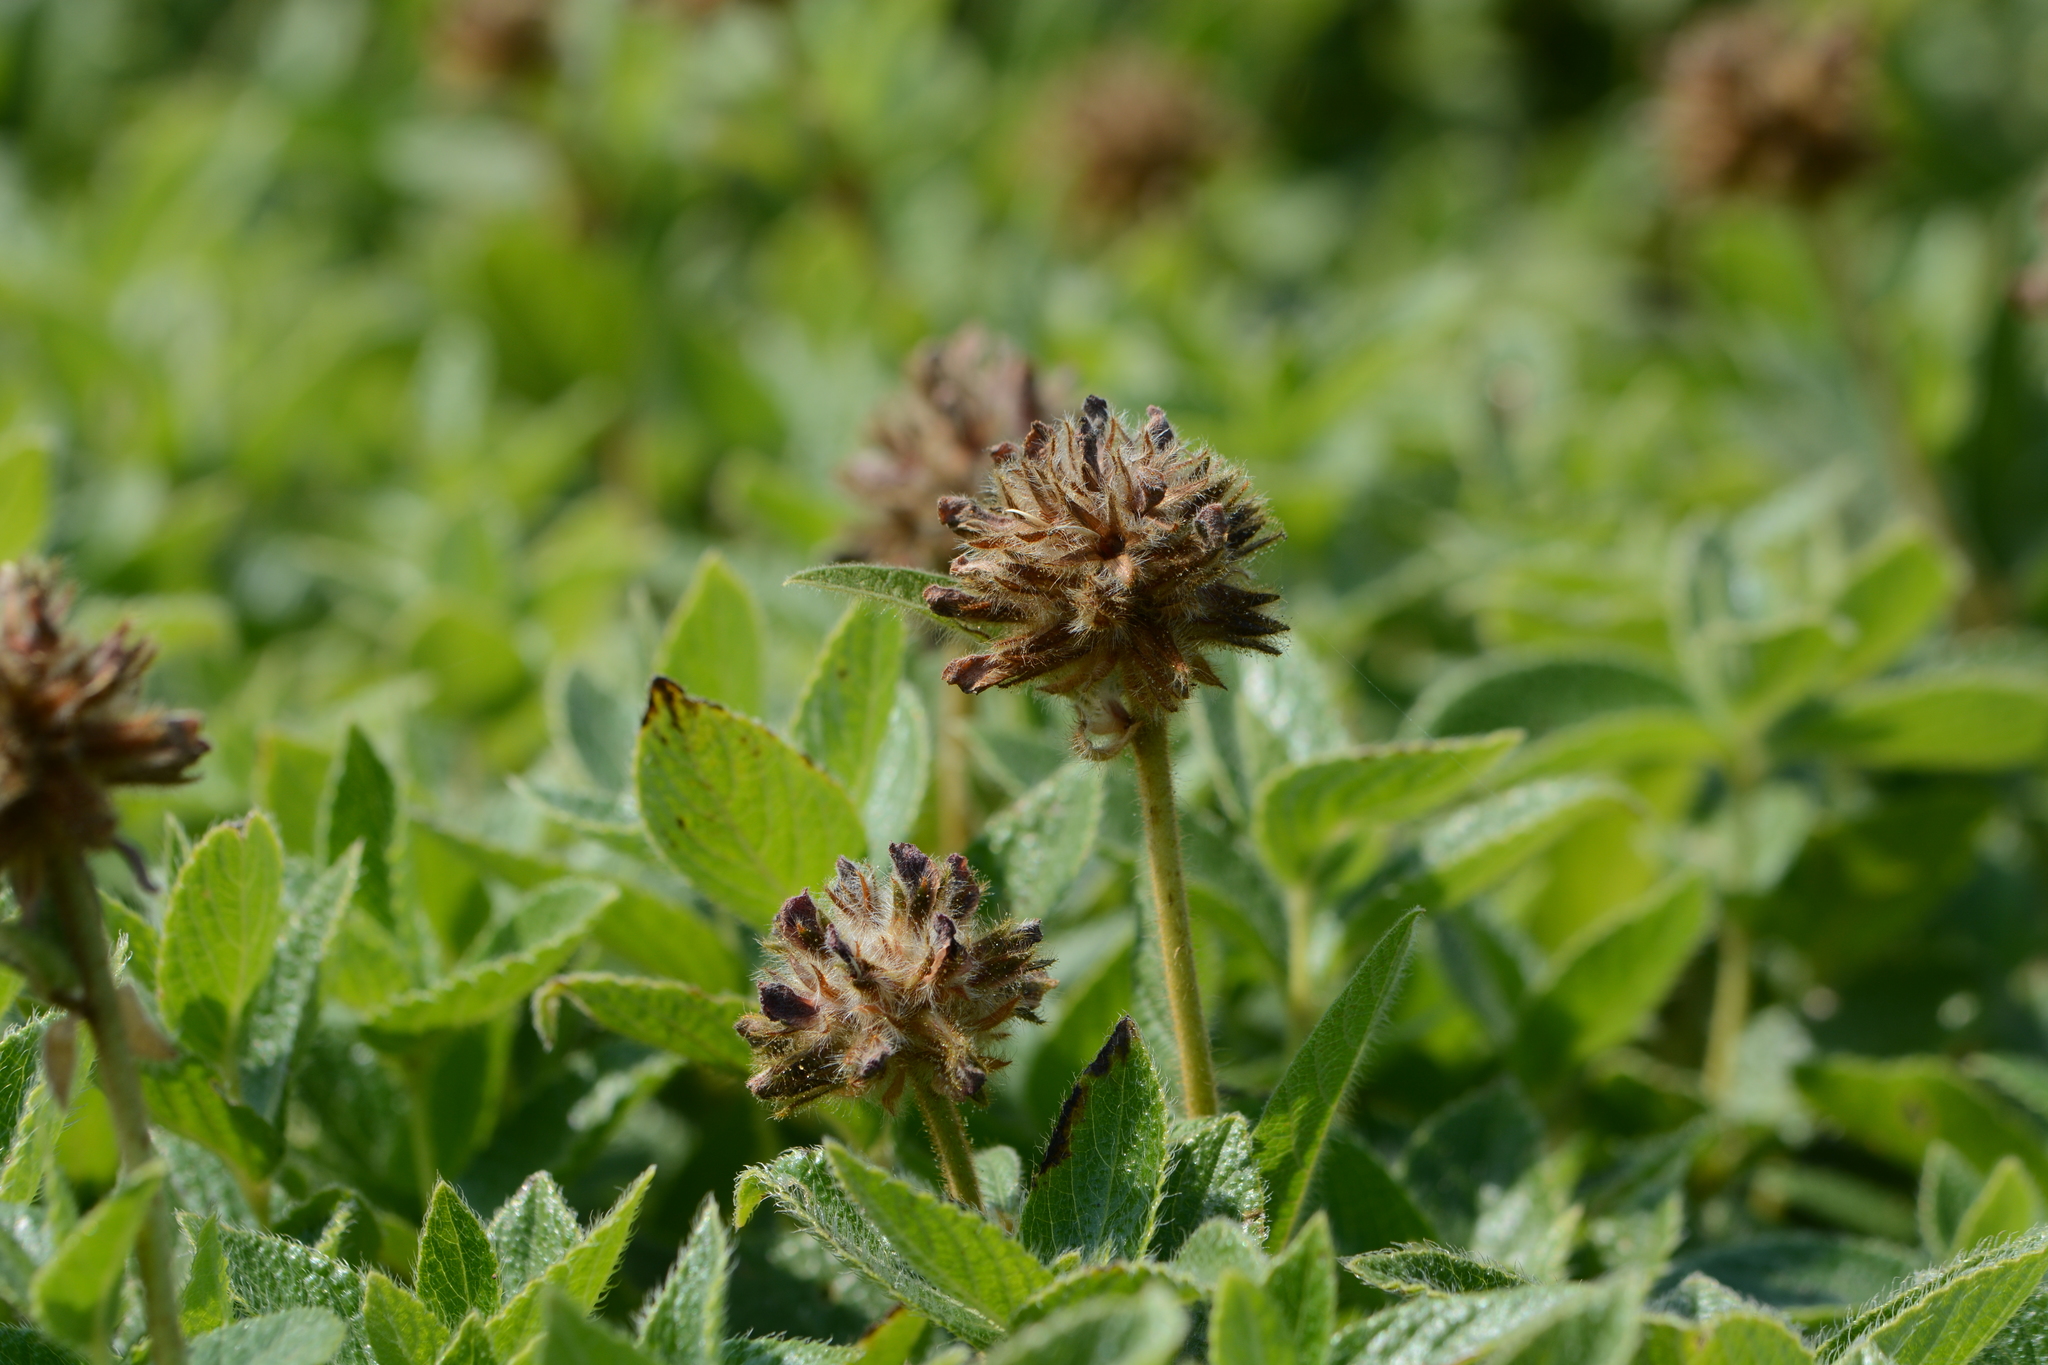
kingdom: Plantae
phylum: Tracheophyta
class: Magnoliopsida
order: Fabales
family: Fabaceae
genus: Flemingia
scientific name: Flemingia nilgheriensis
